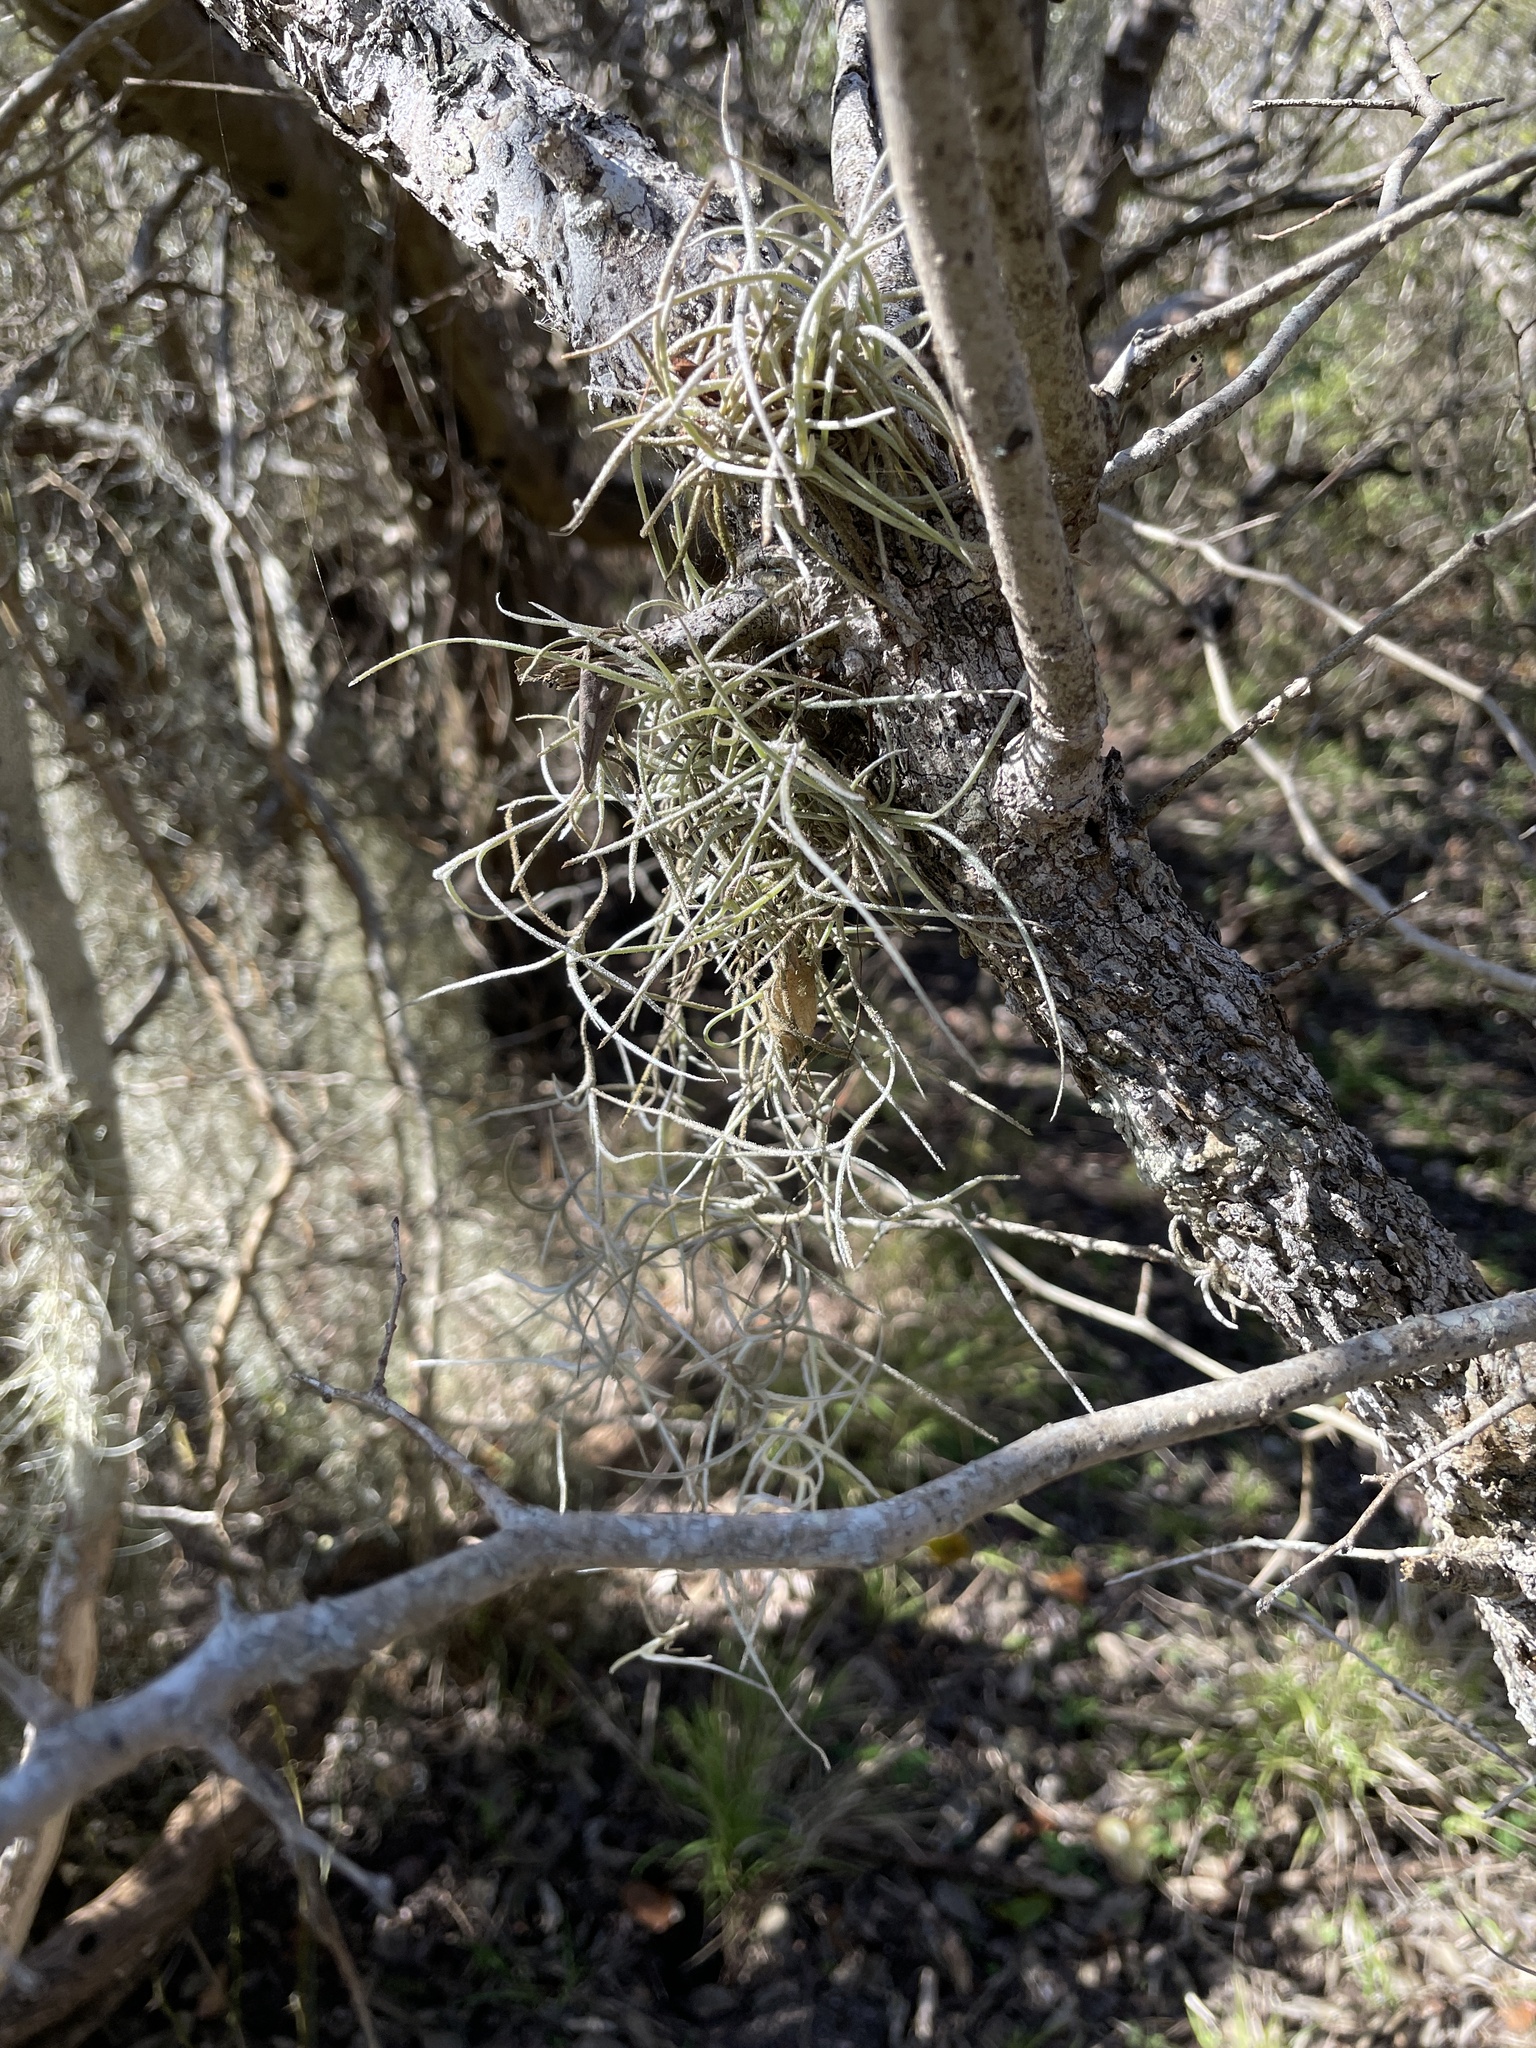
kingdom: Plantae
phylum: Tracheophyta
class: Liliopsida
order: Poales
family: Bromeliaceae
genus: Tillandsia
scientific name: Tillandsia usneoides
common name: Spanish moss
